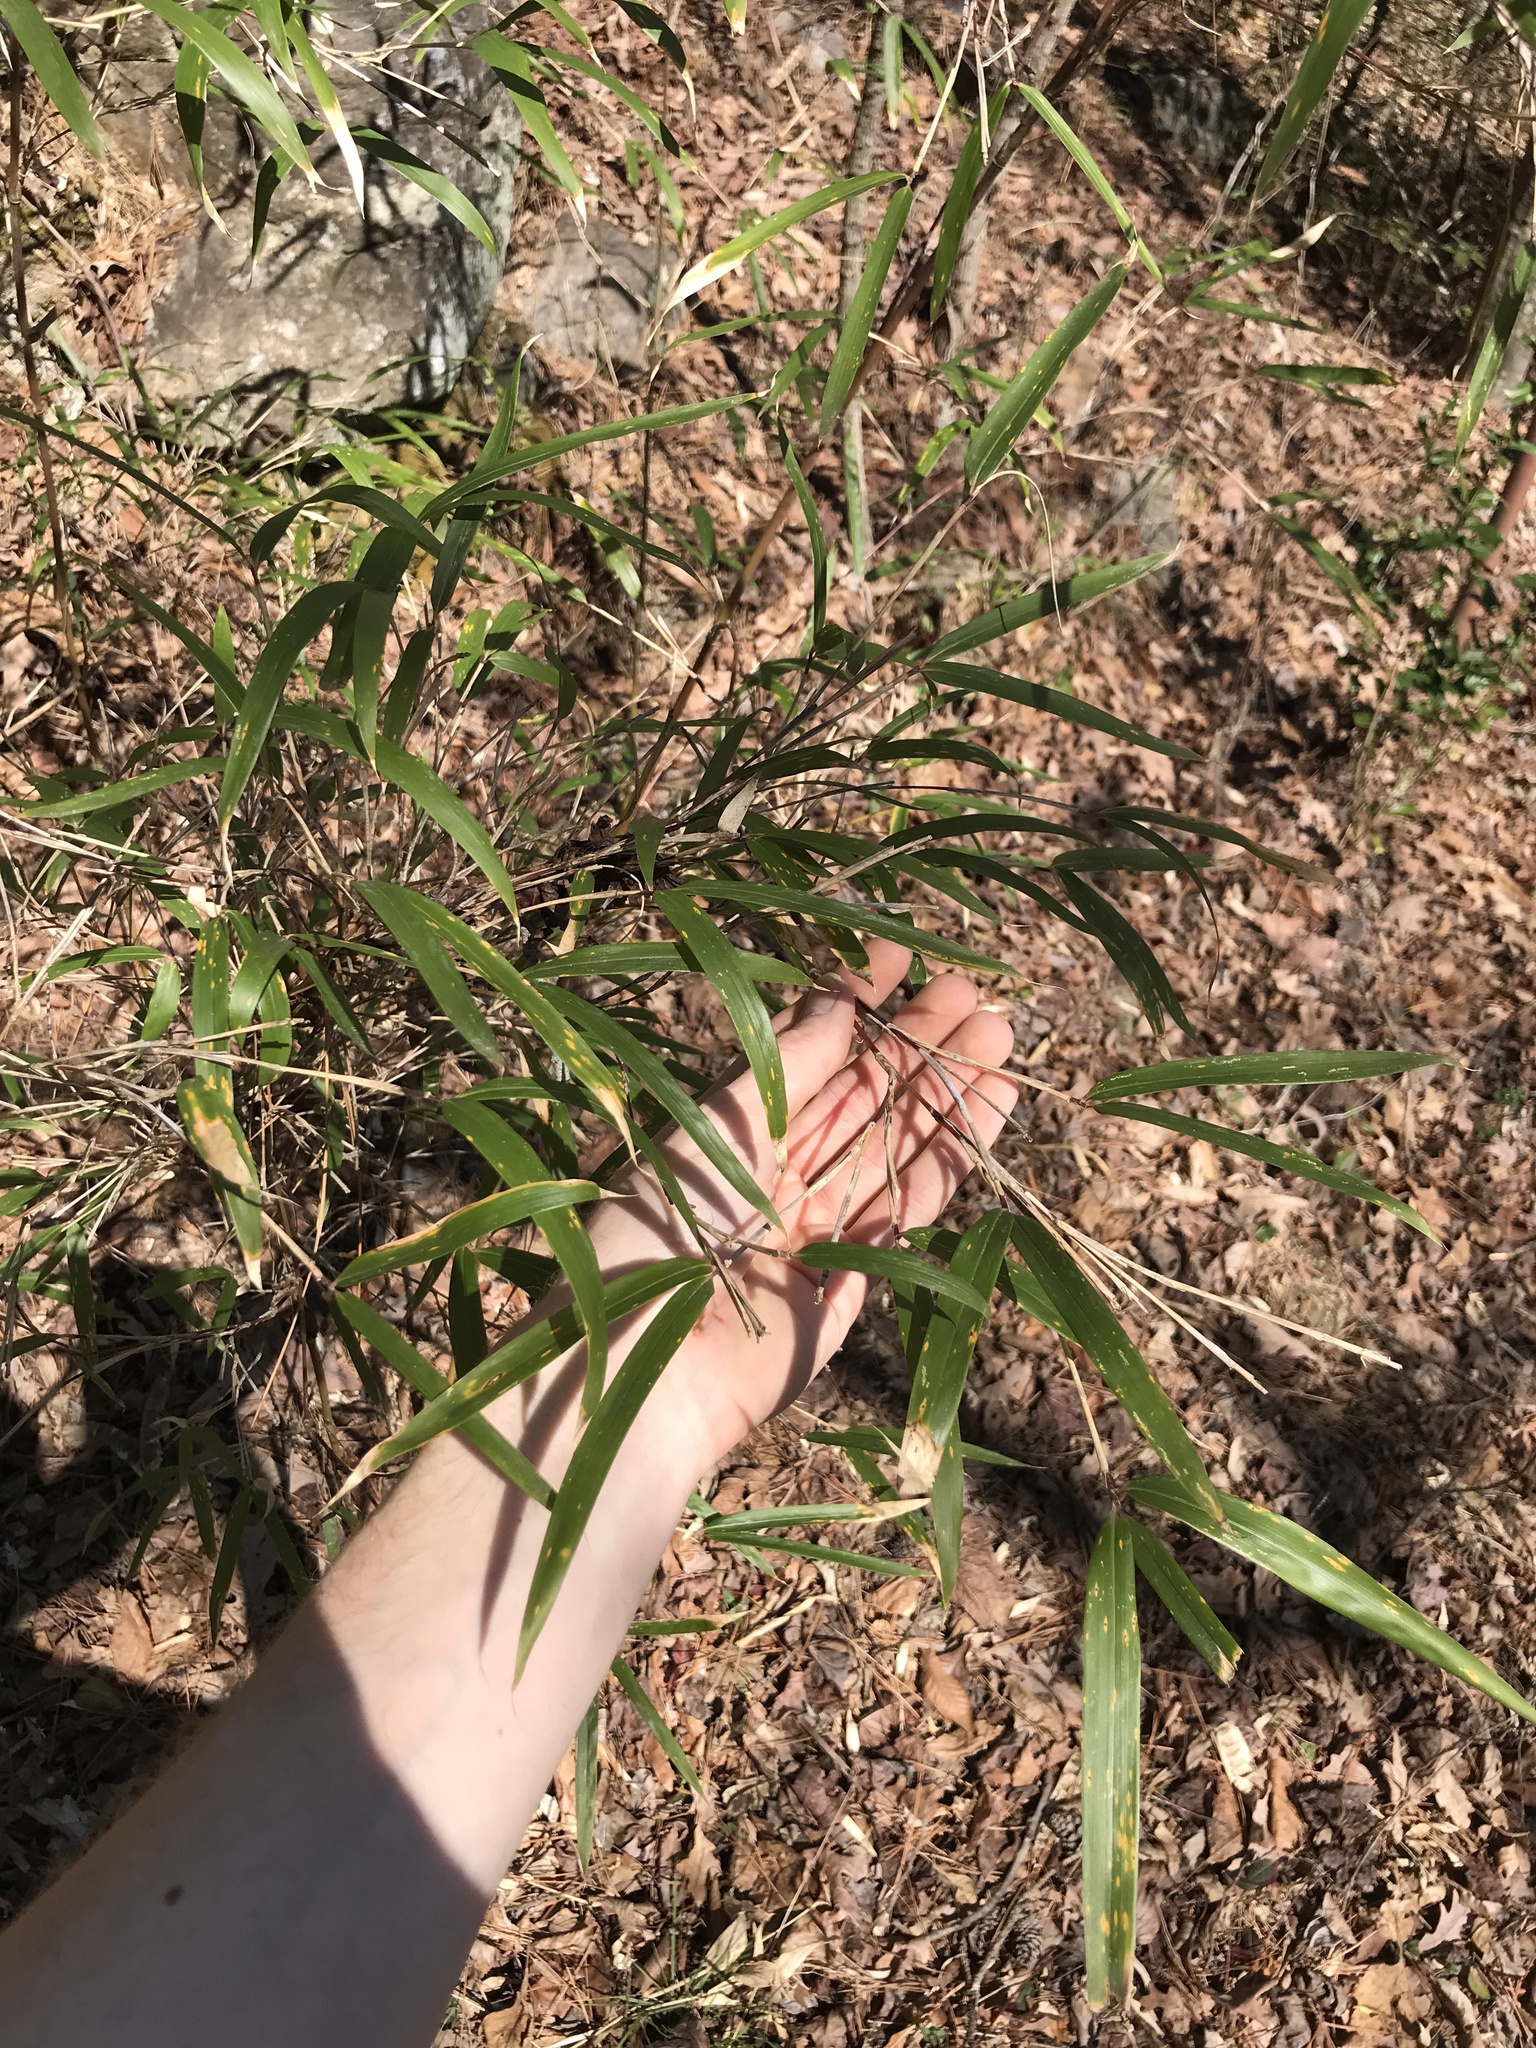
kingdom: Plantae
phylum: Tracheophyta
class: Liliopsida
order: Poales
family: Poaceae
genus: Arundinaria
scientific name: Arundinaria gigantea
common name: Giant cane
